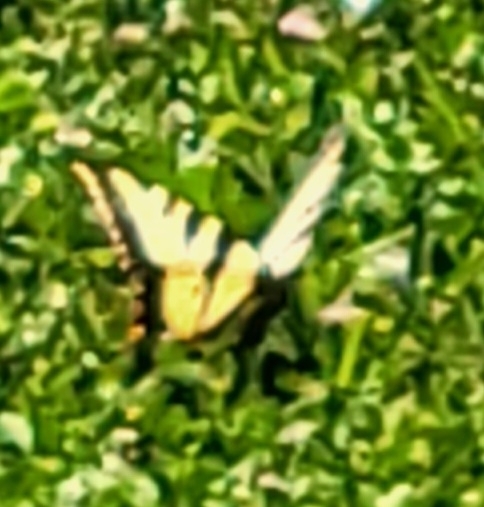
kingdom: Animalia
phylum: Arthropoda
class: Insecta
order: Lepidoptera
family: Papilionidae
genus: Papilio
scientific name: Papilio rutulus
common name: Western tiger swallowtail
